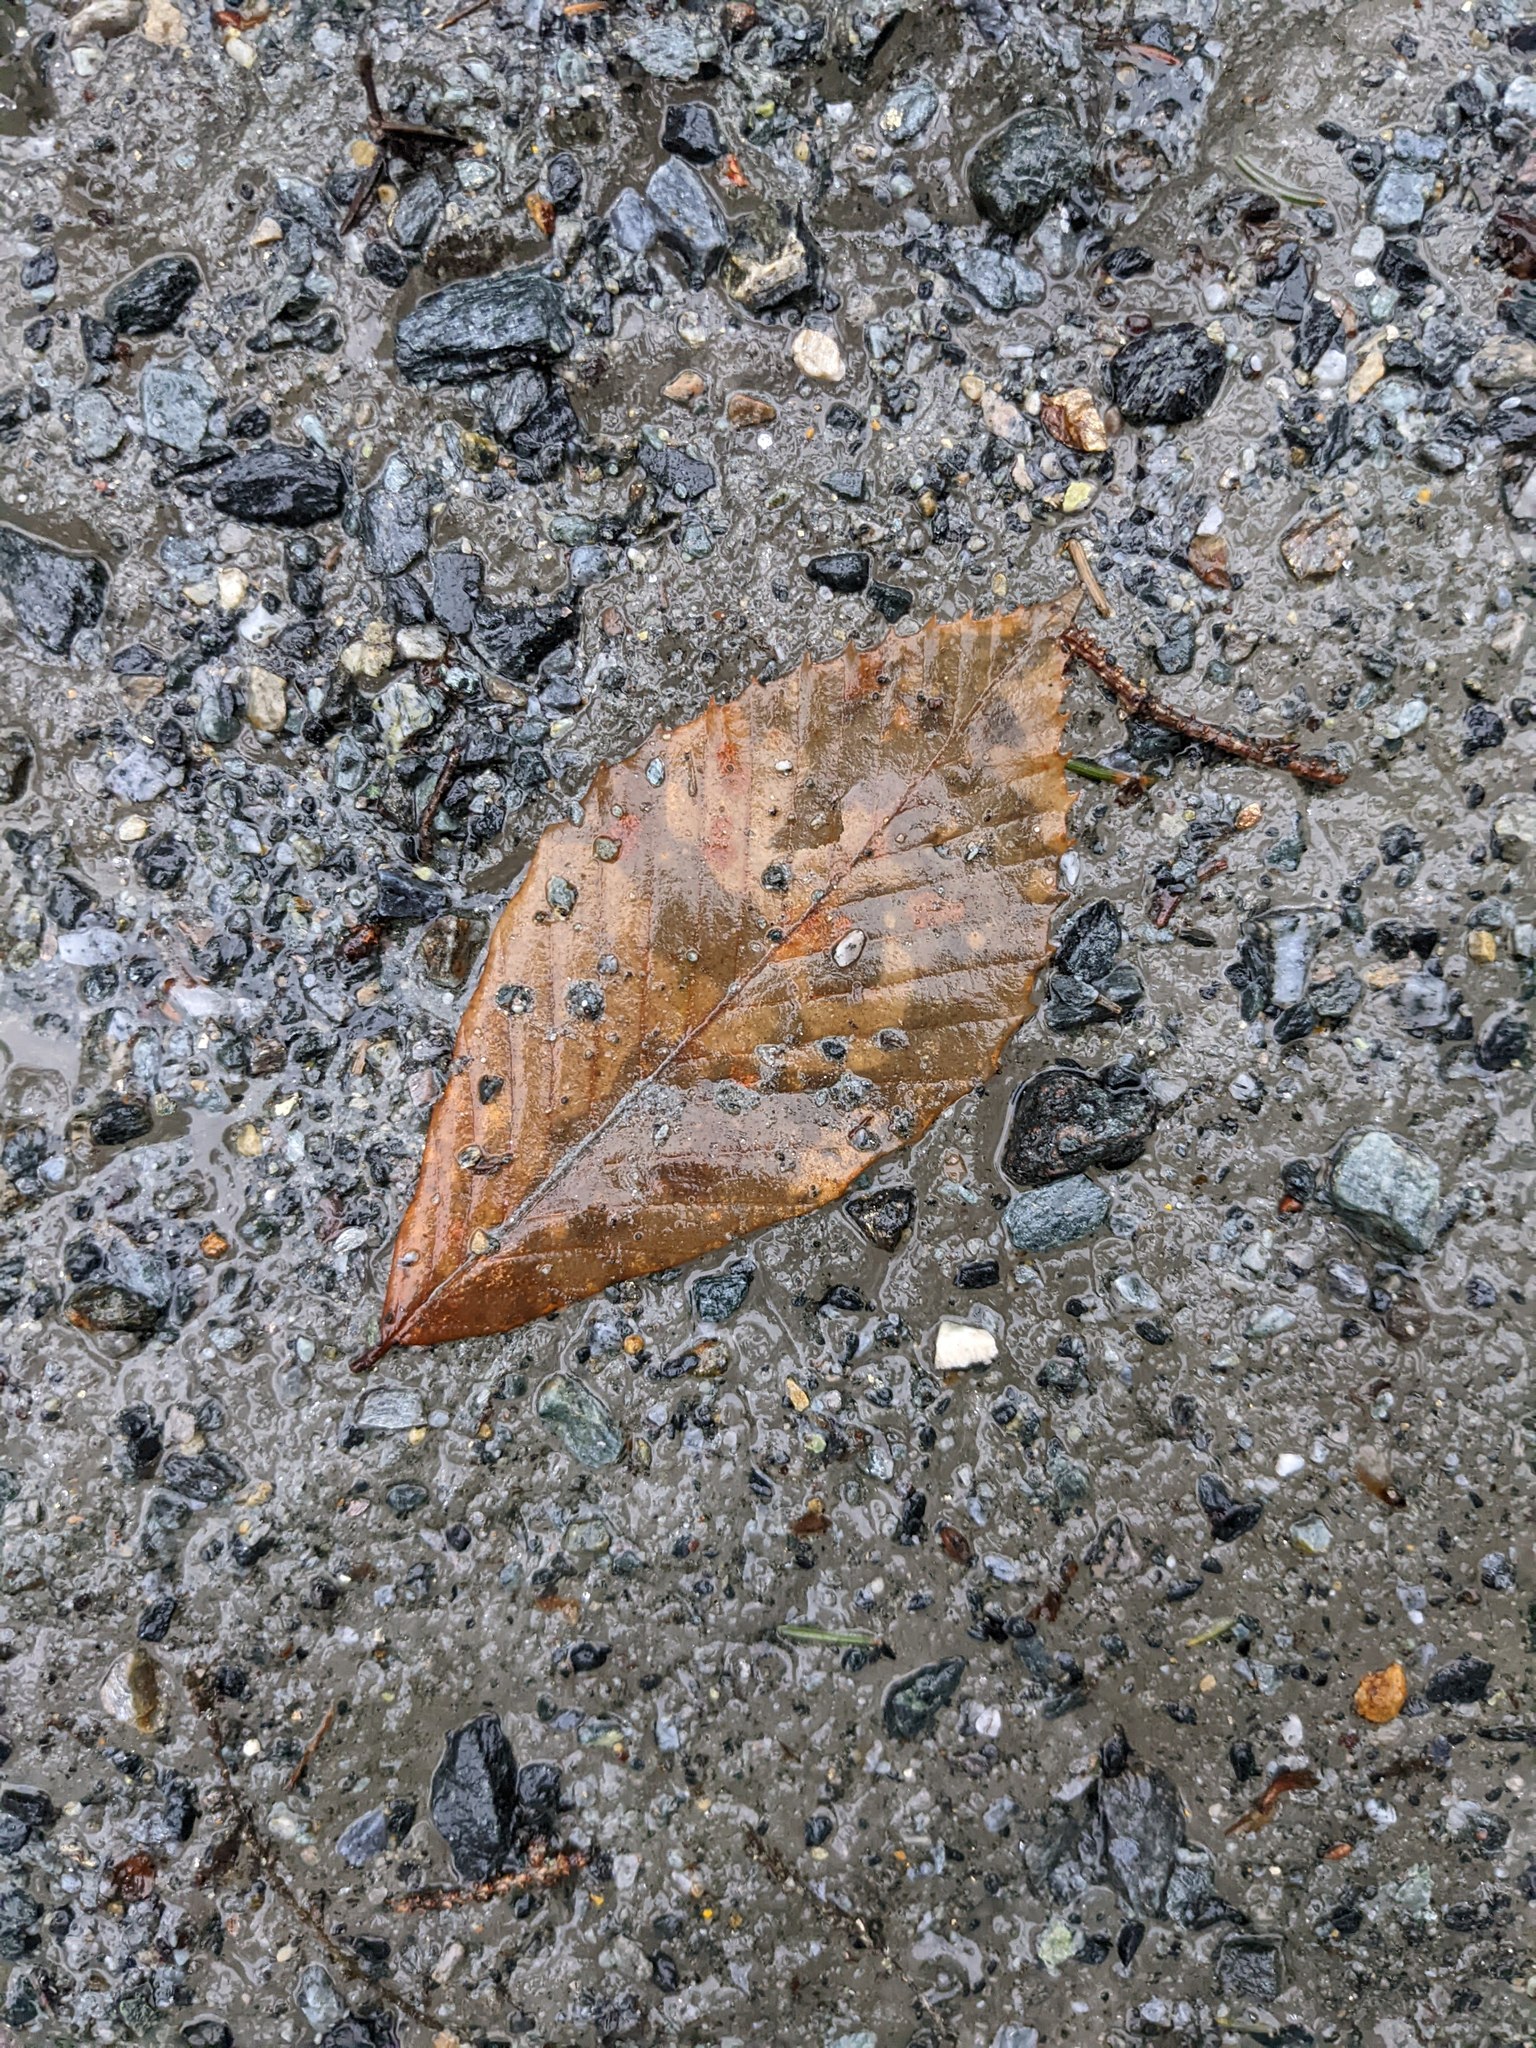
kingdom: Plantae
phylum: Tracheophyta
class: Magnoliopsida
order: Fagales
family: Fagaceae
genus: Fagus
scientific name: Fagus grandifolia
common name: American beech
